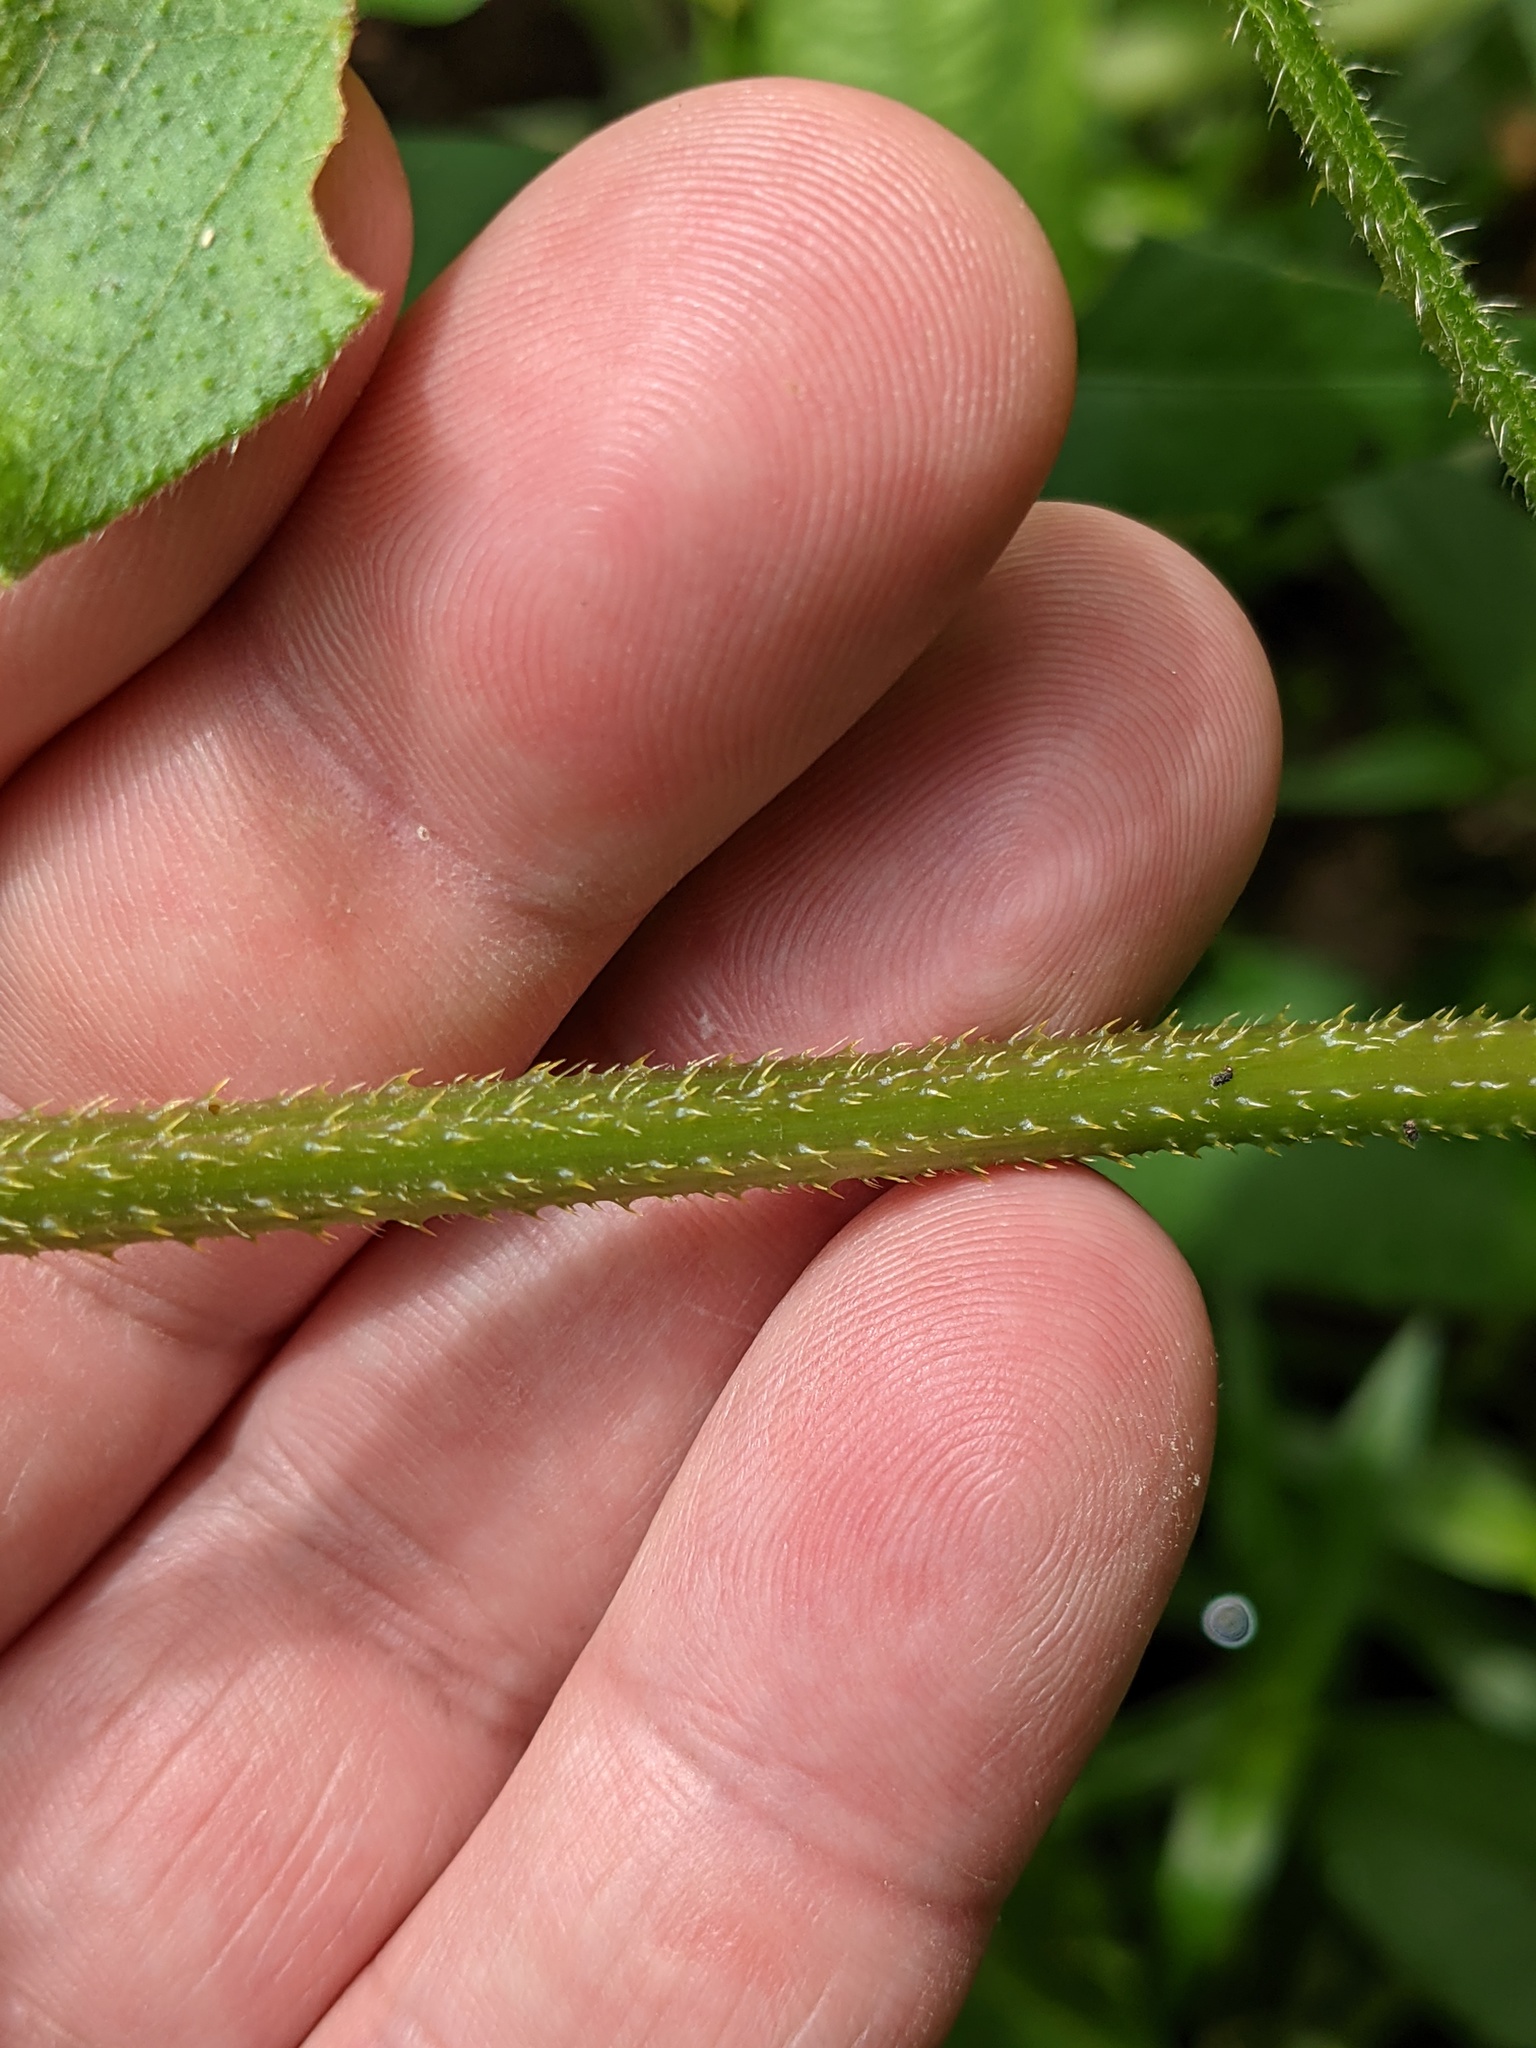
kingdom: Plantae
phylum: Tracheophyta
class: Magnoliopsida
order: Caryophyllales
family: Polygonaceae
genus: Persicaria
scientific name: Persicaria arifolia
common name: Halberd-leaved tear-thumb
